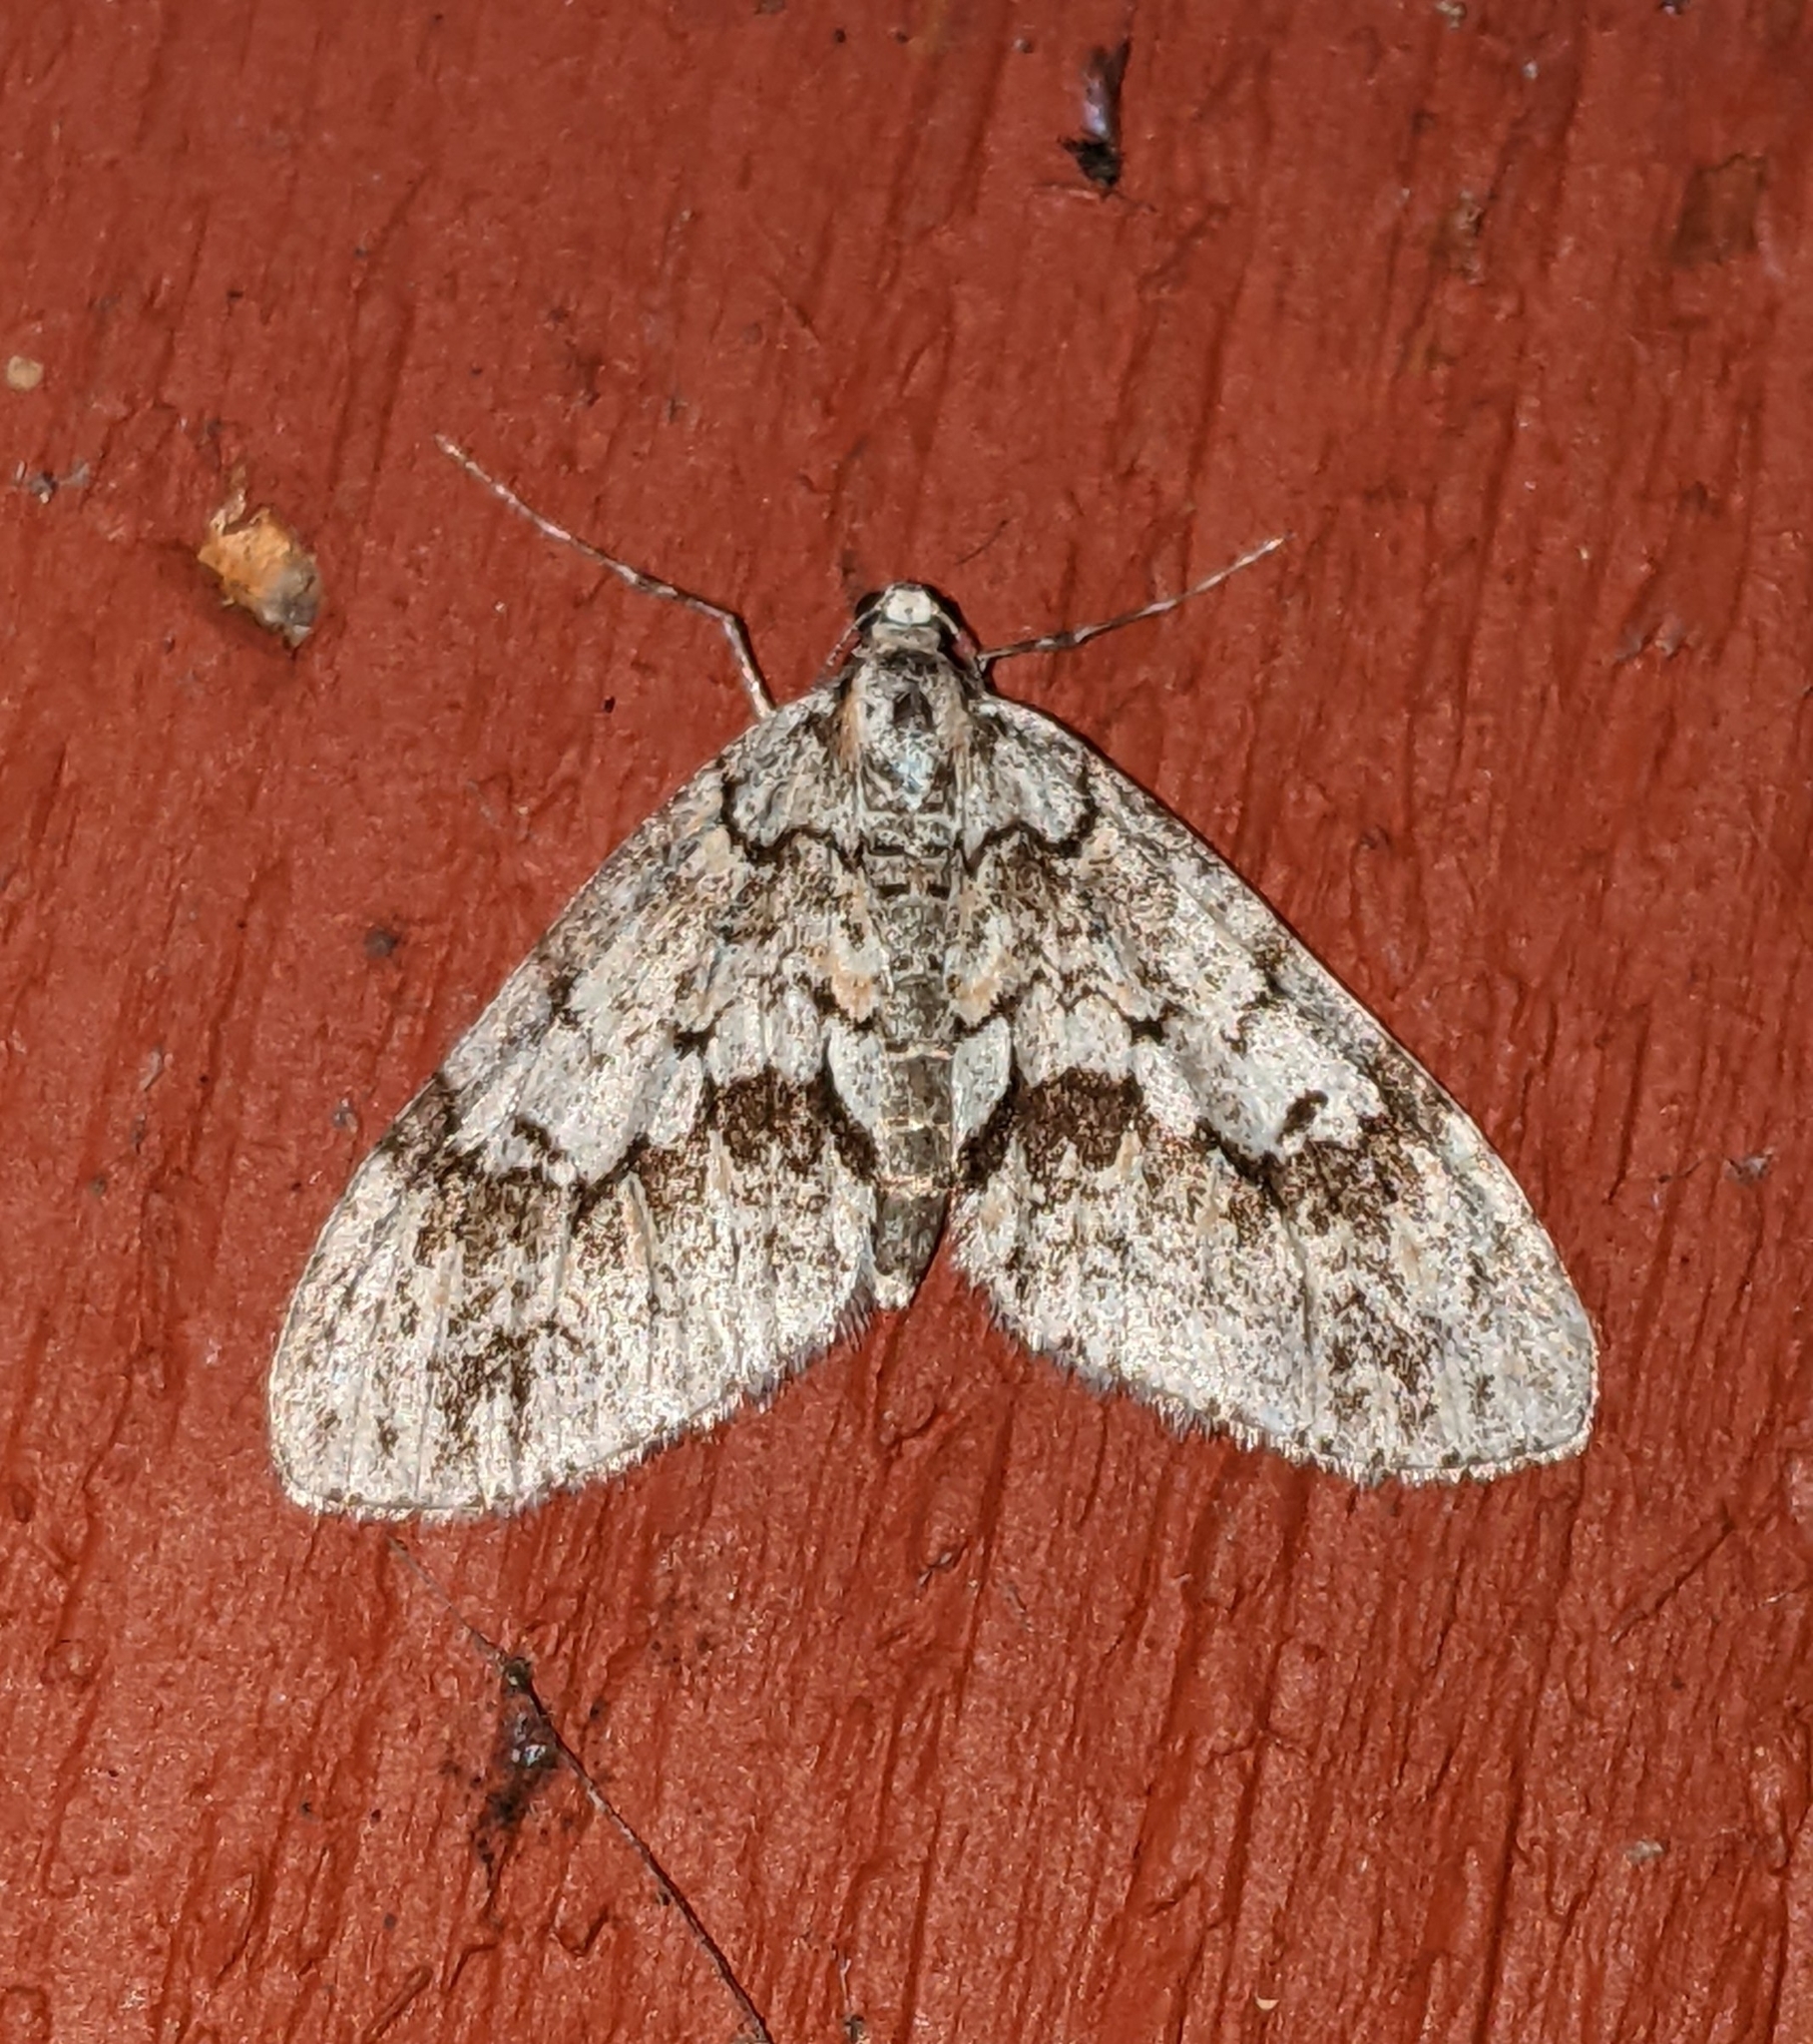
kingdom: Animalia
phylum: Arthropoda
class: Insecta
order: Lepidoptera
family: Geometridae
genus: Cladara
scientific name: Cladara limitaria
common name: Mottled gray carpet
